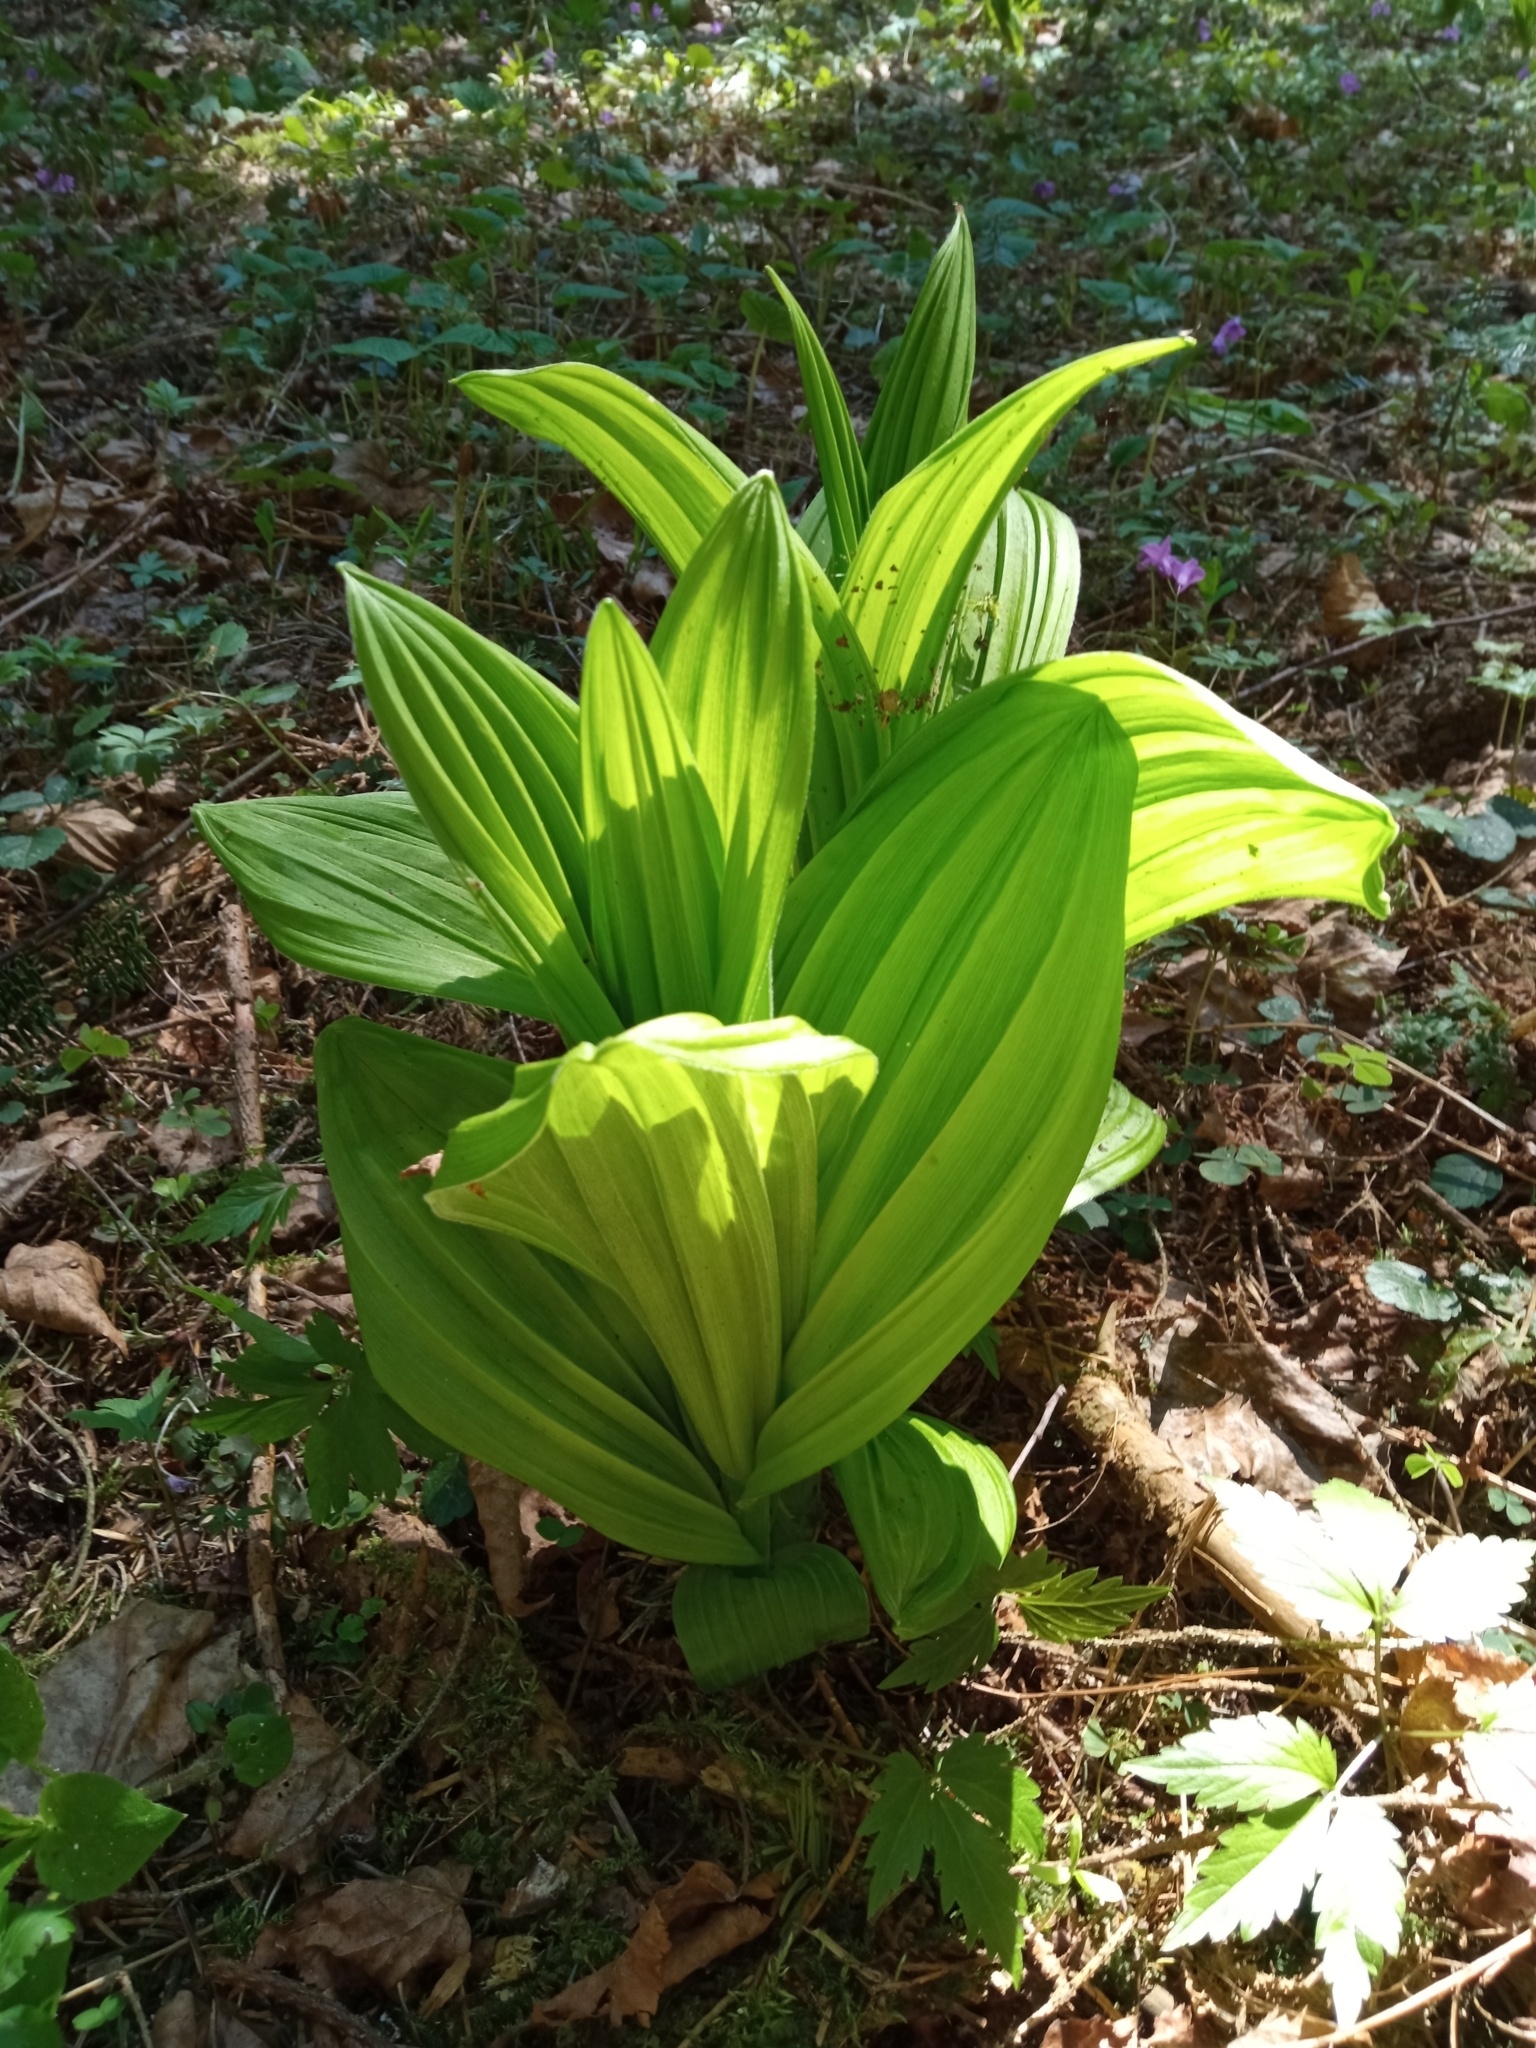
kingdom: Plantae
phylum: Tracheophyta
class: Liliopsida
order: Liliales
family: Melanthiaceae
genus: Veratrum
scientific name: Veratrum lobelianum
